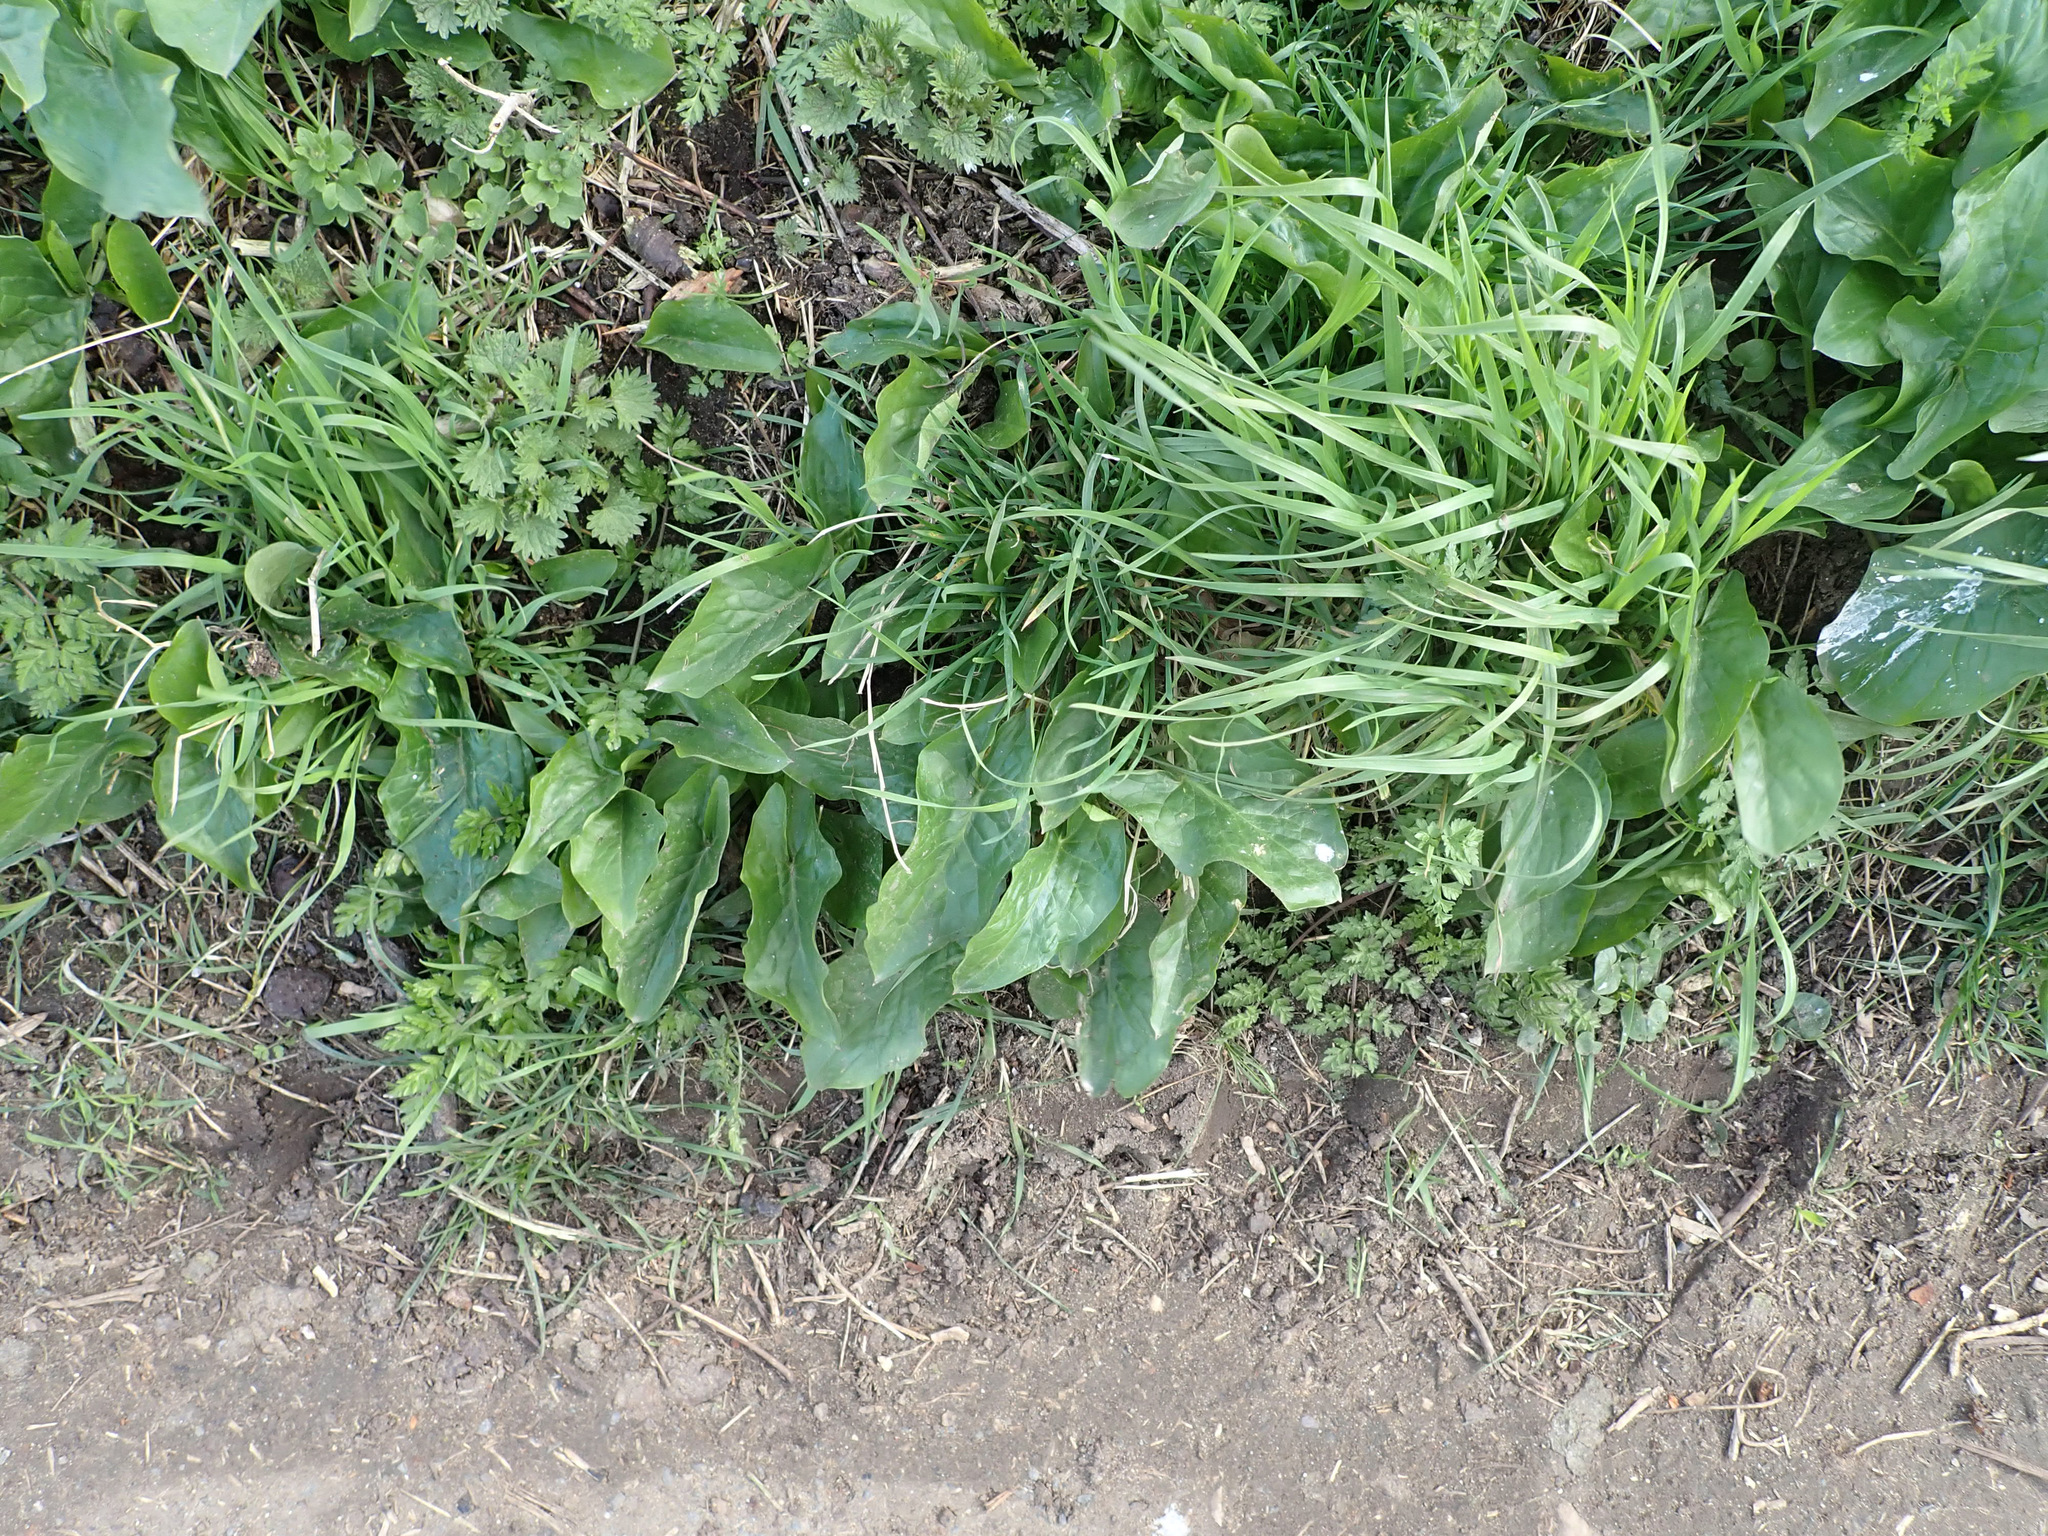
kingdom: Plantae
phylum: Tracheophyta
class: Liliopsida
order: Alismatales
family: Araceae
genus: Arum
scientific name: Arum maculatum
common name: Lords-and-ladies
